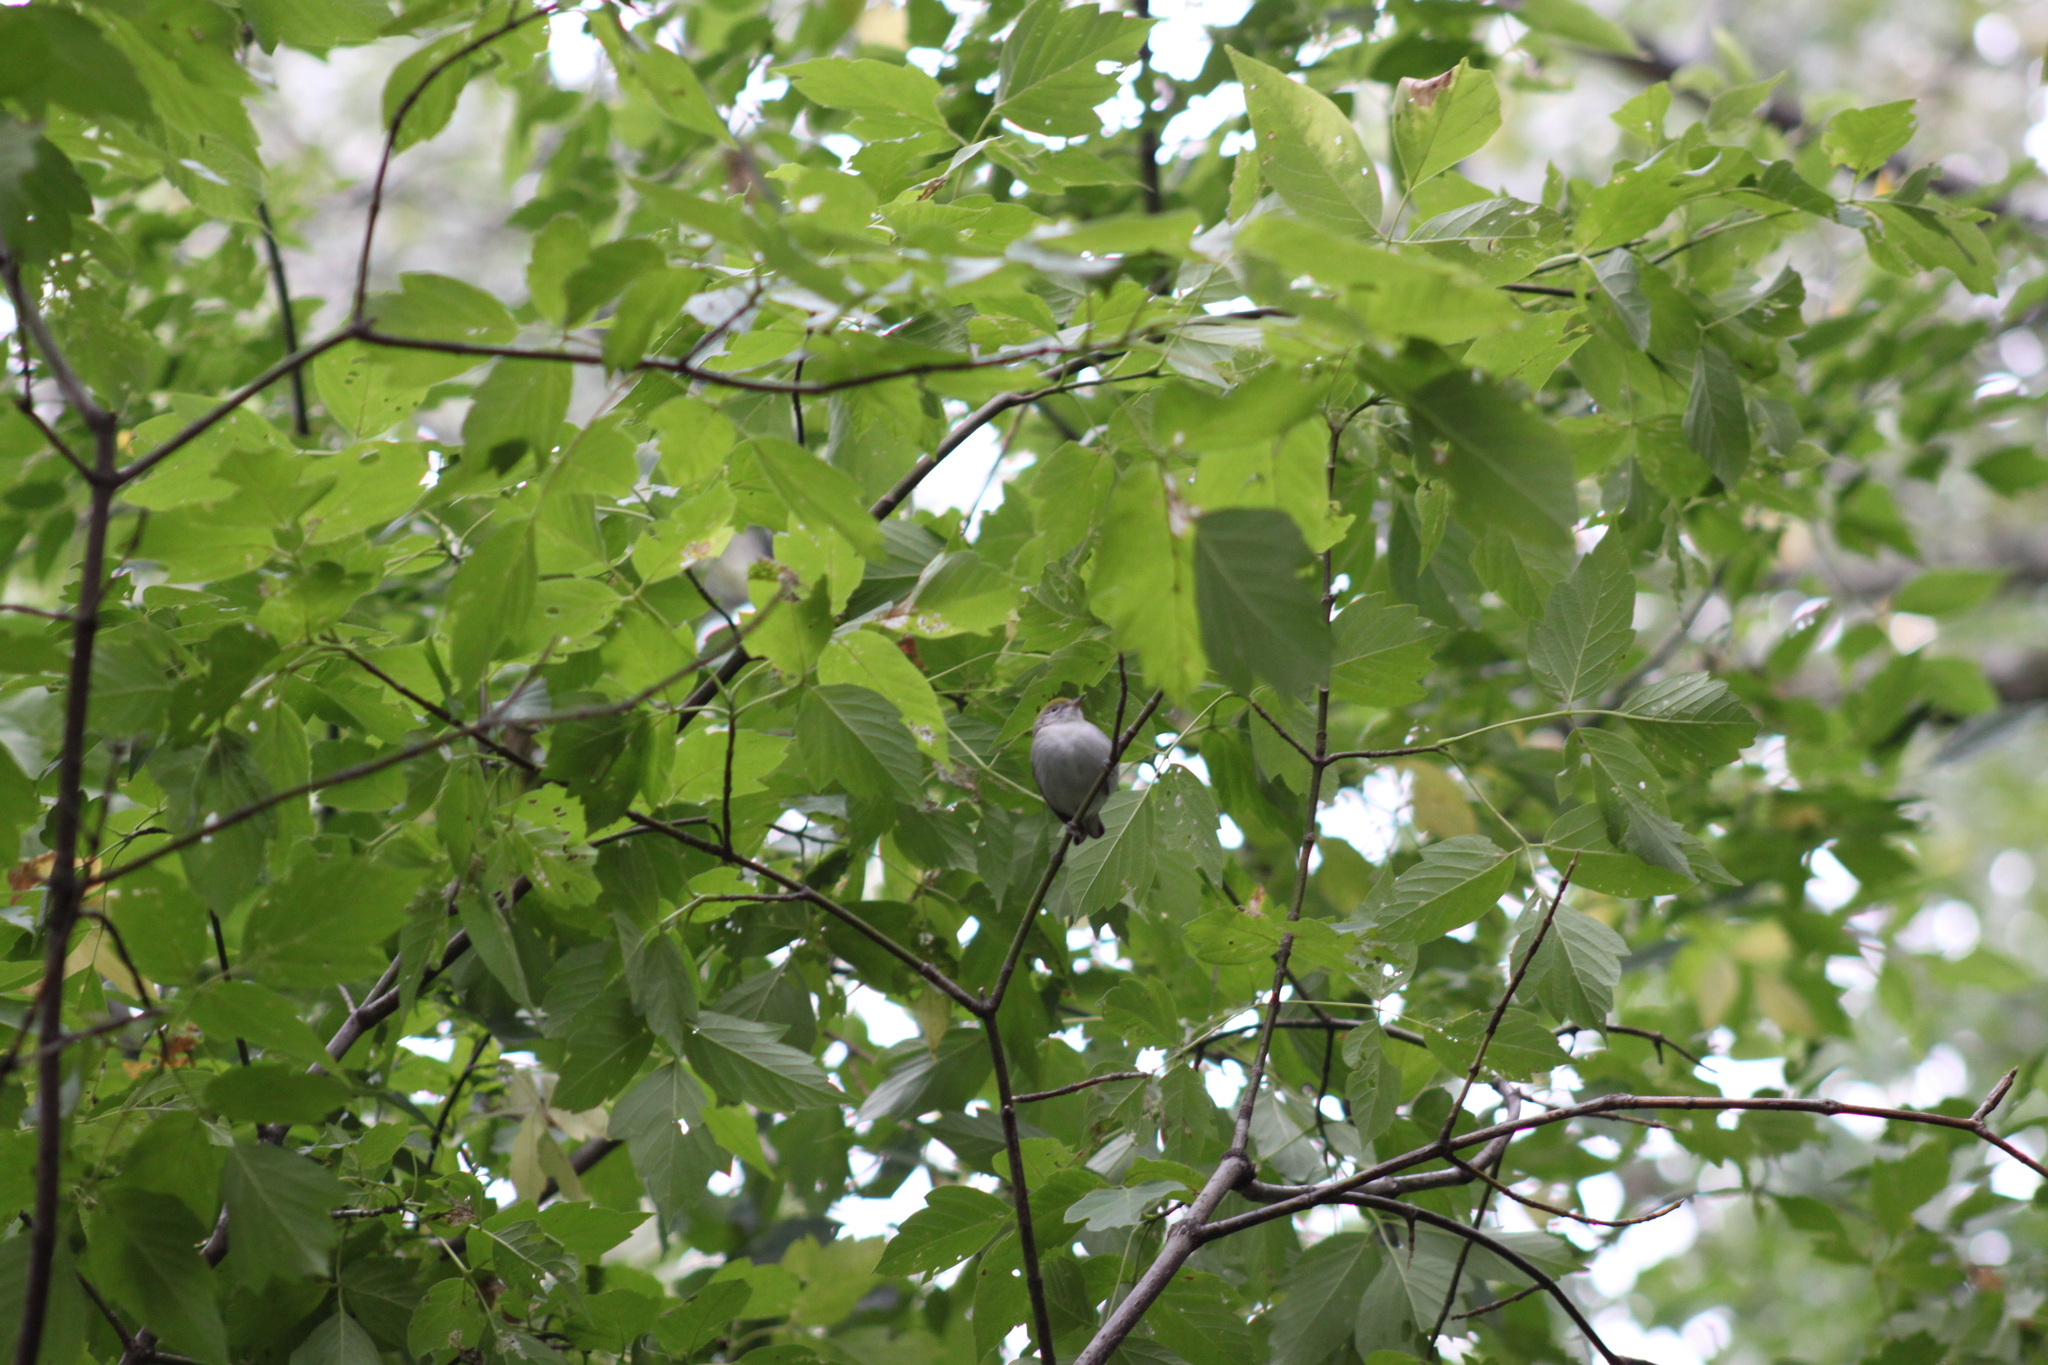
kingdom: Animalia
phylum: Chordata
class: Aves
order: Passeriformes
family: Parulidae
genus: Setophaga
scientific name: Setophaga pensylvanica
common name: Chestnut-sided warbler
